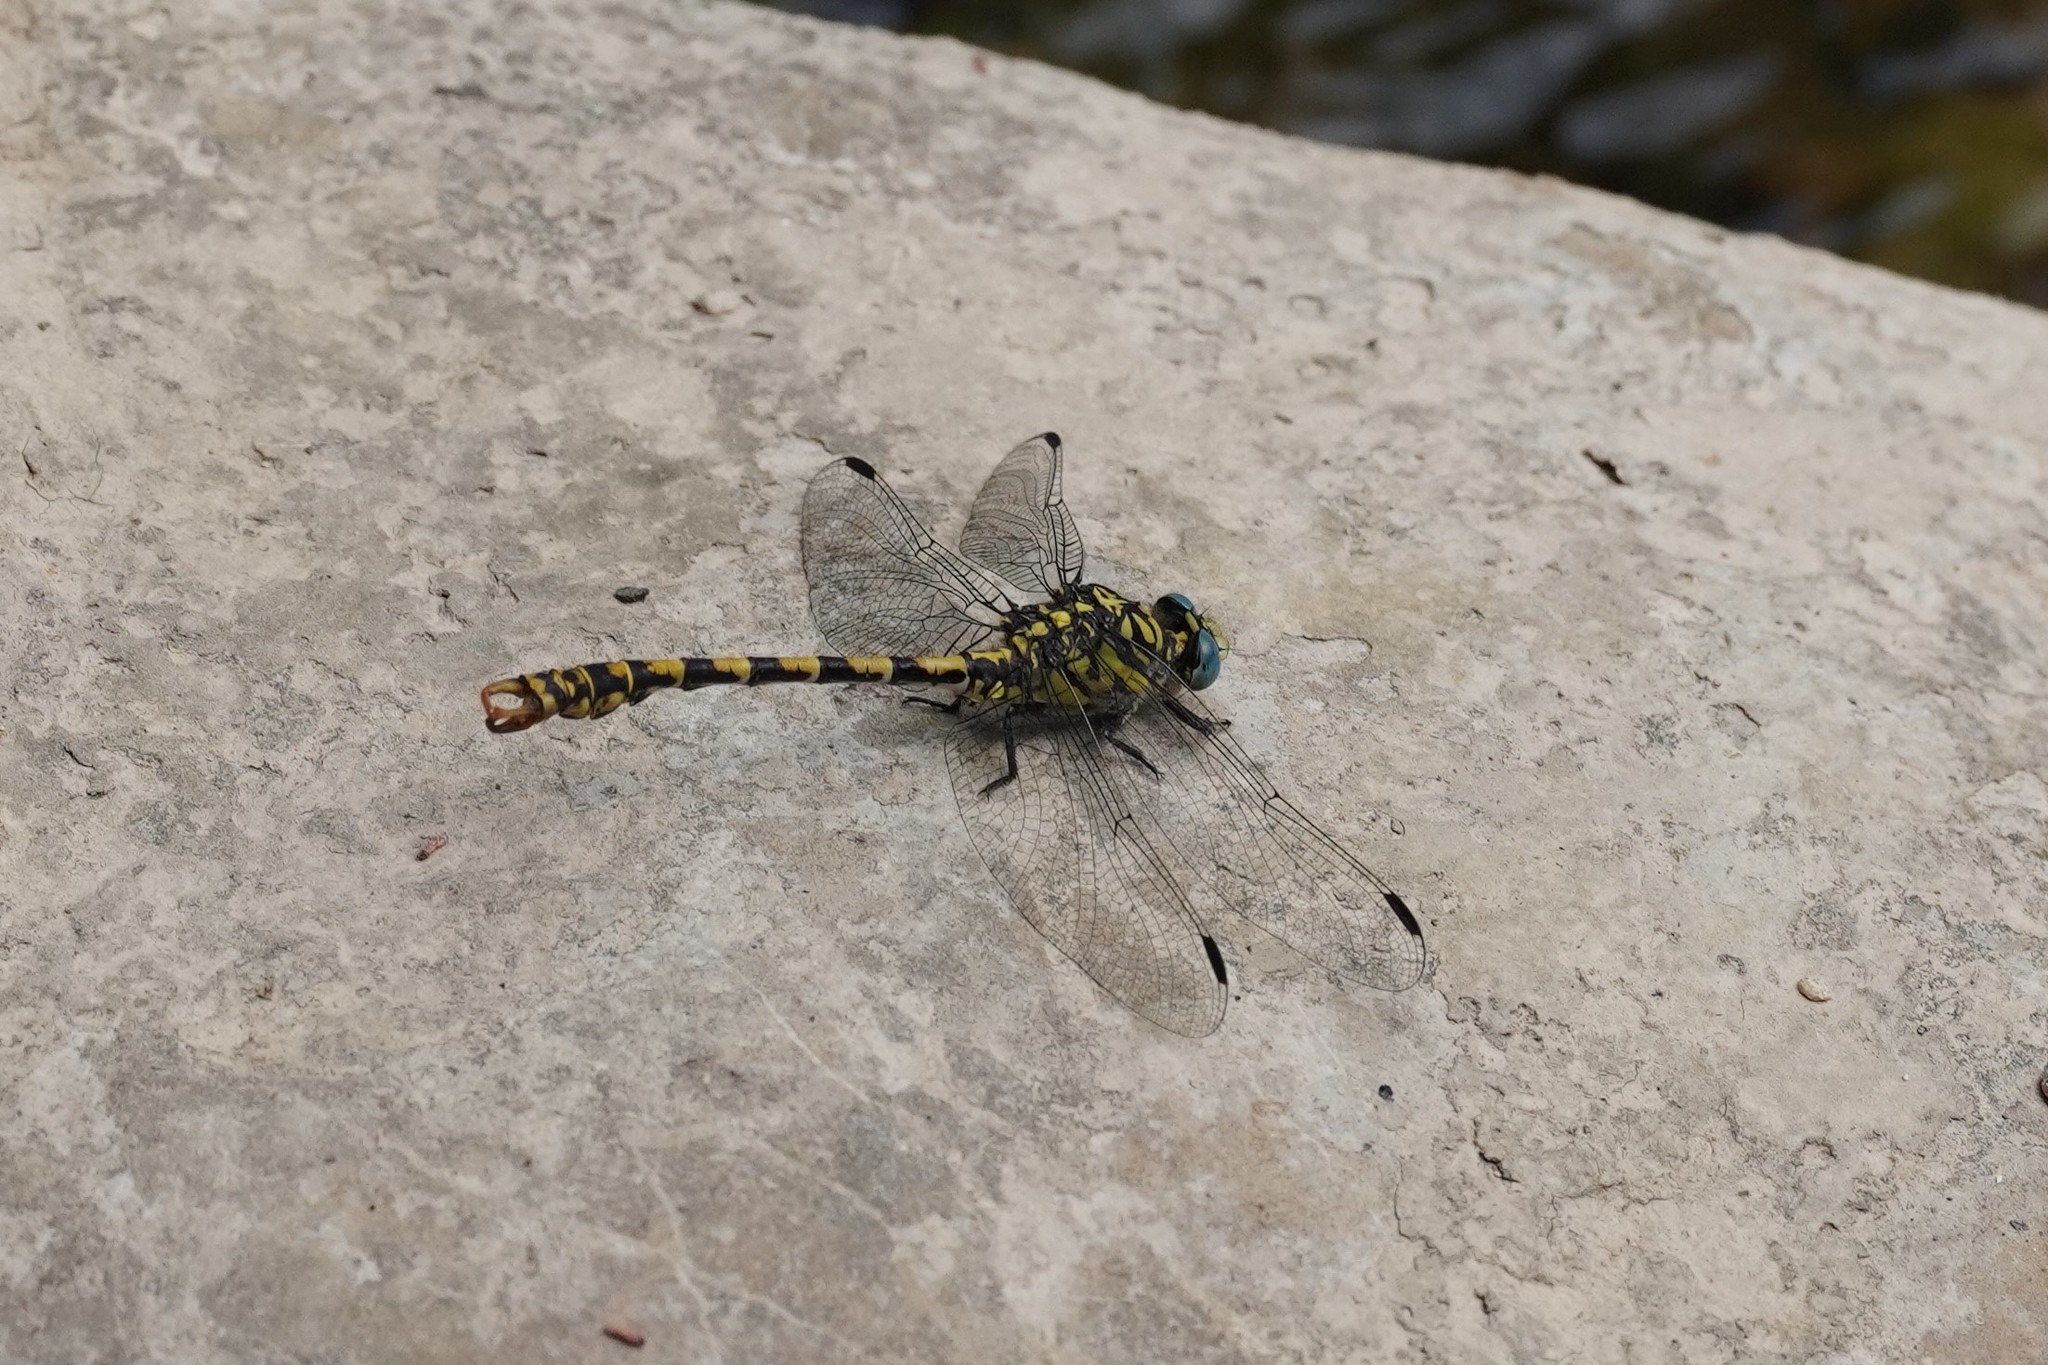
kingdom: Animalia
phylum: Arthropoda
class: Insecta
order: Odonata
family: Gomphidae
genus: Onychogomphus
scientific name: Onychogomphus forcipatus
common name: Small pincertail
